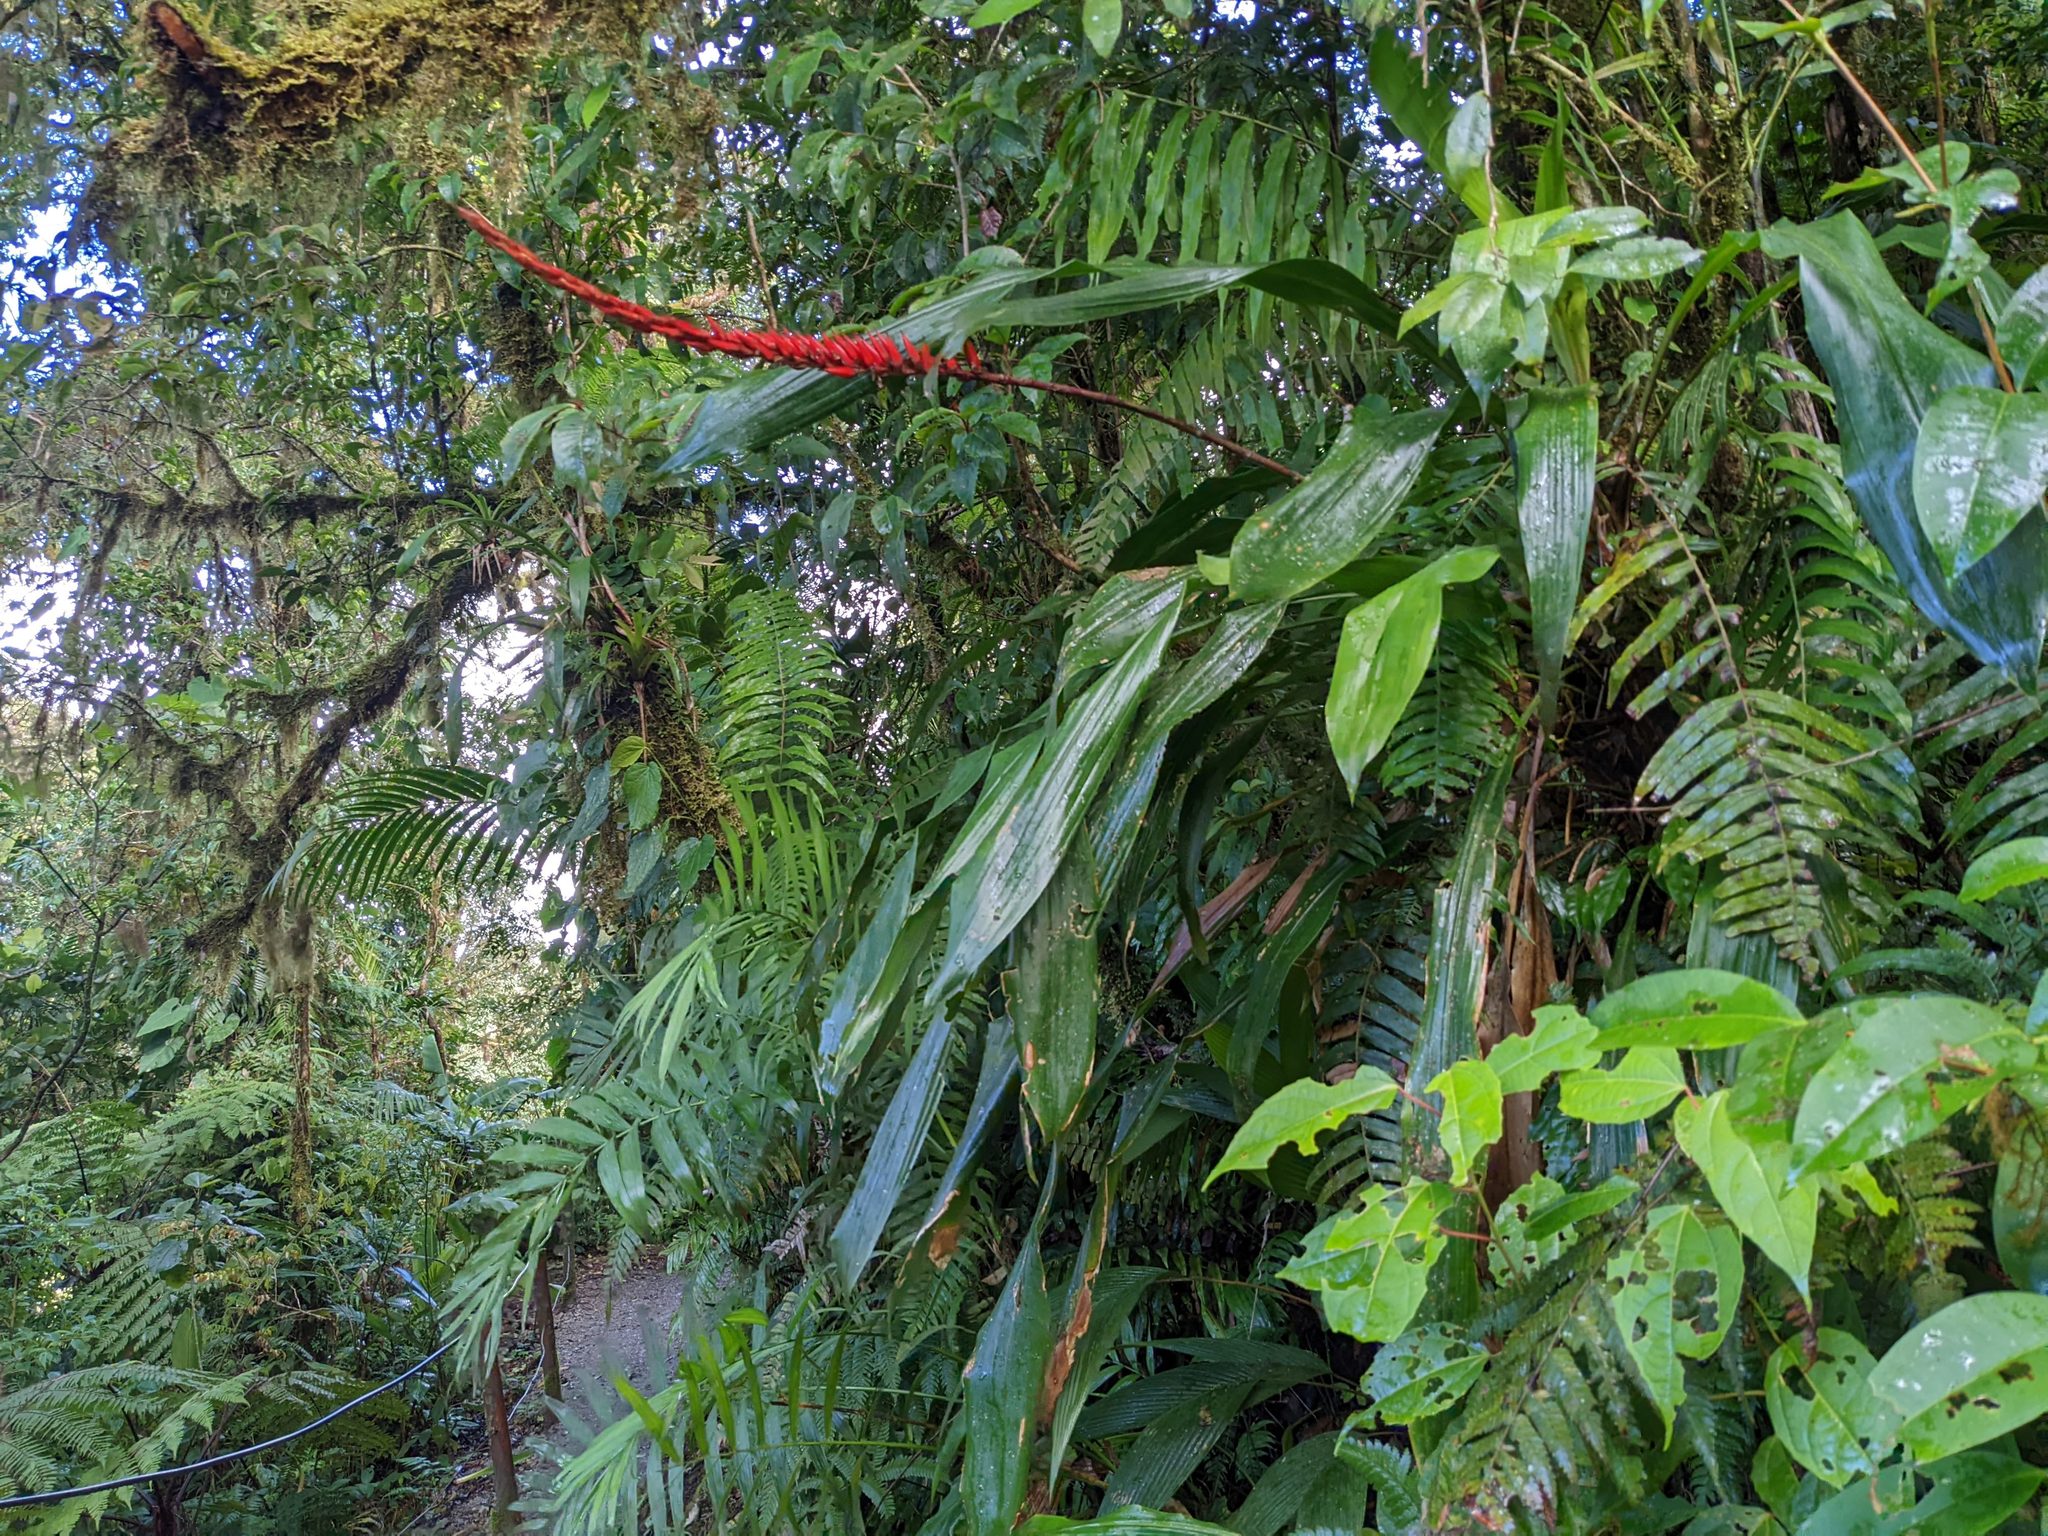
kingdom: Plantae
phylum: Tracheophyta
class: Liliopsida
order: Poales
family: Bromeliaceae
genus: Pitcairnia
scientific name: Pitcairnia brittoniana
